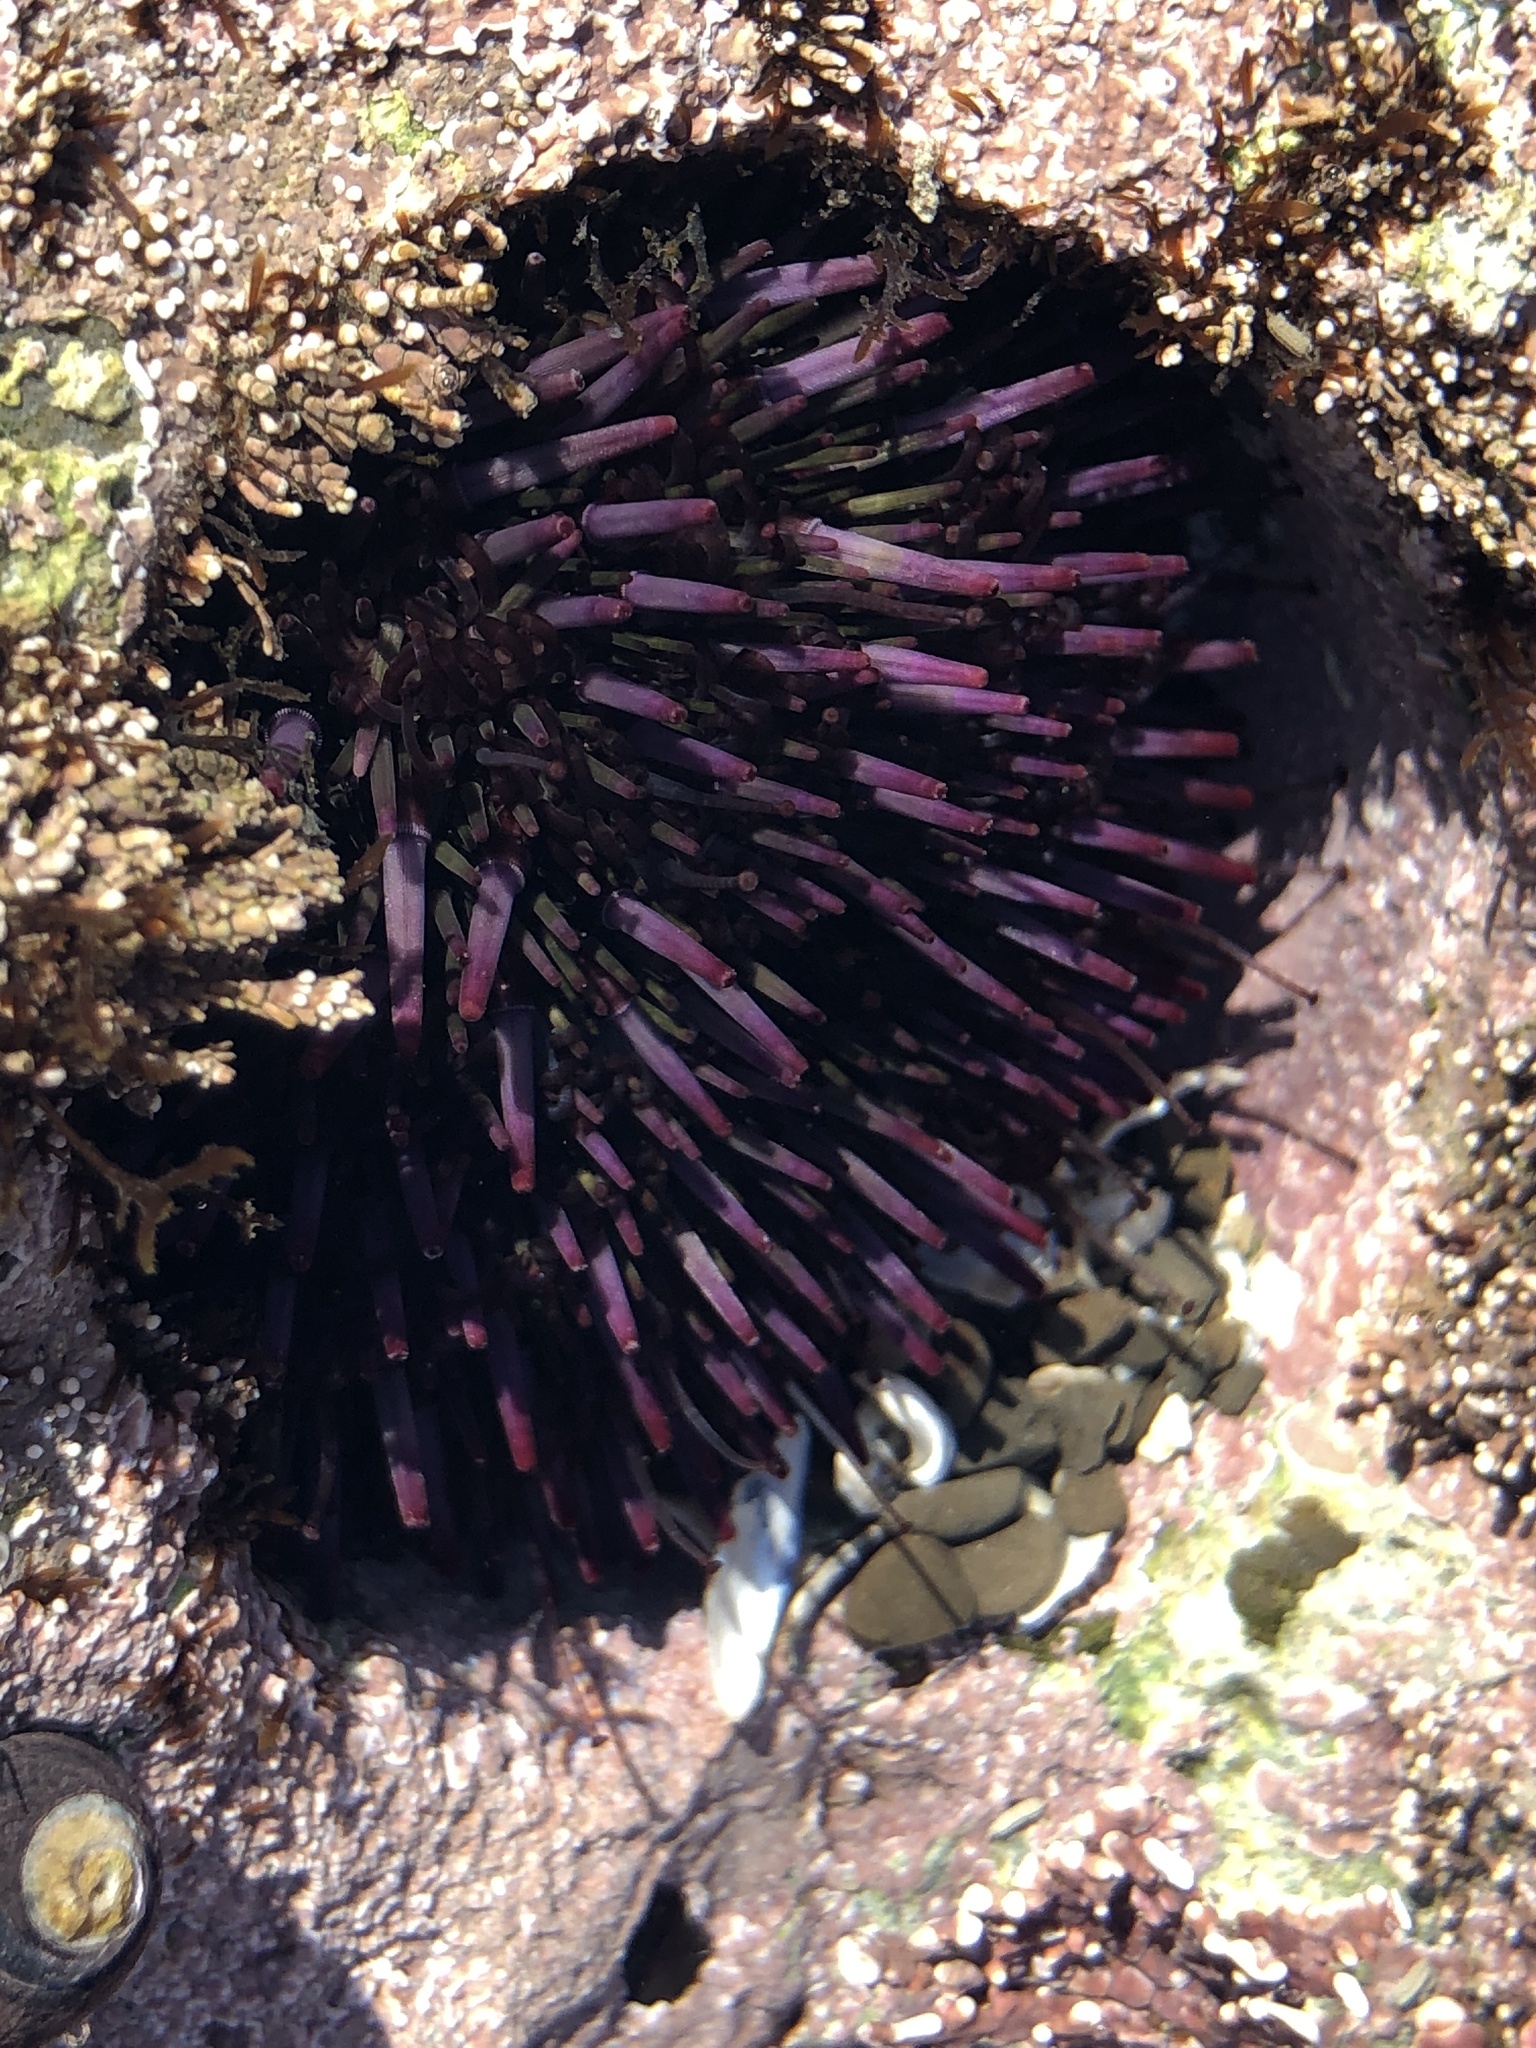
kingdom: Animalia
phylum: Echinodermata
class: Echinoidea
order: Camarodonta
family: Strongylocentrotidae
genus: Strongylocentrotus
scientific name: Strongylocentrotus purpuratus
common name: Purple sea urchin
